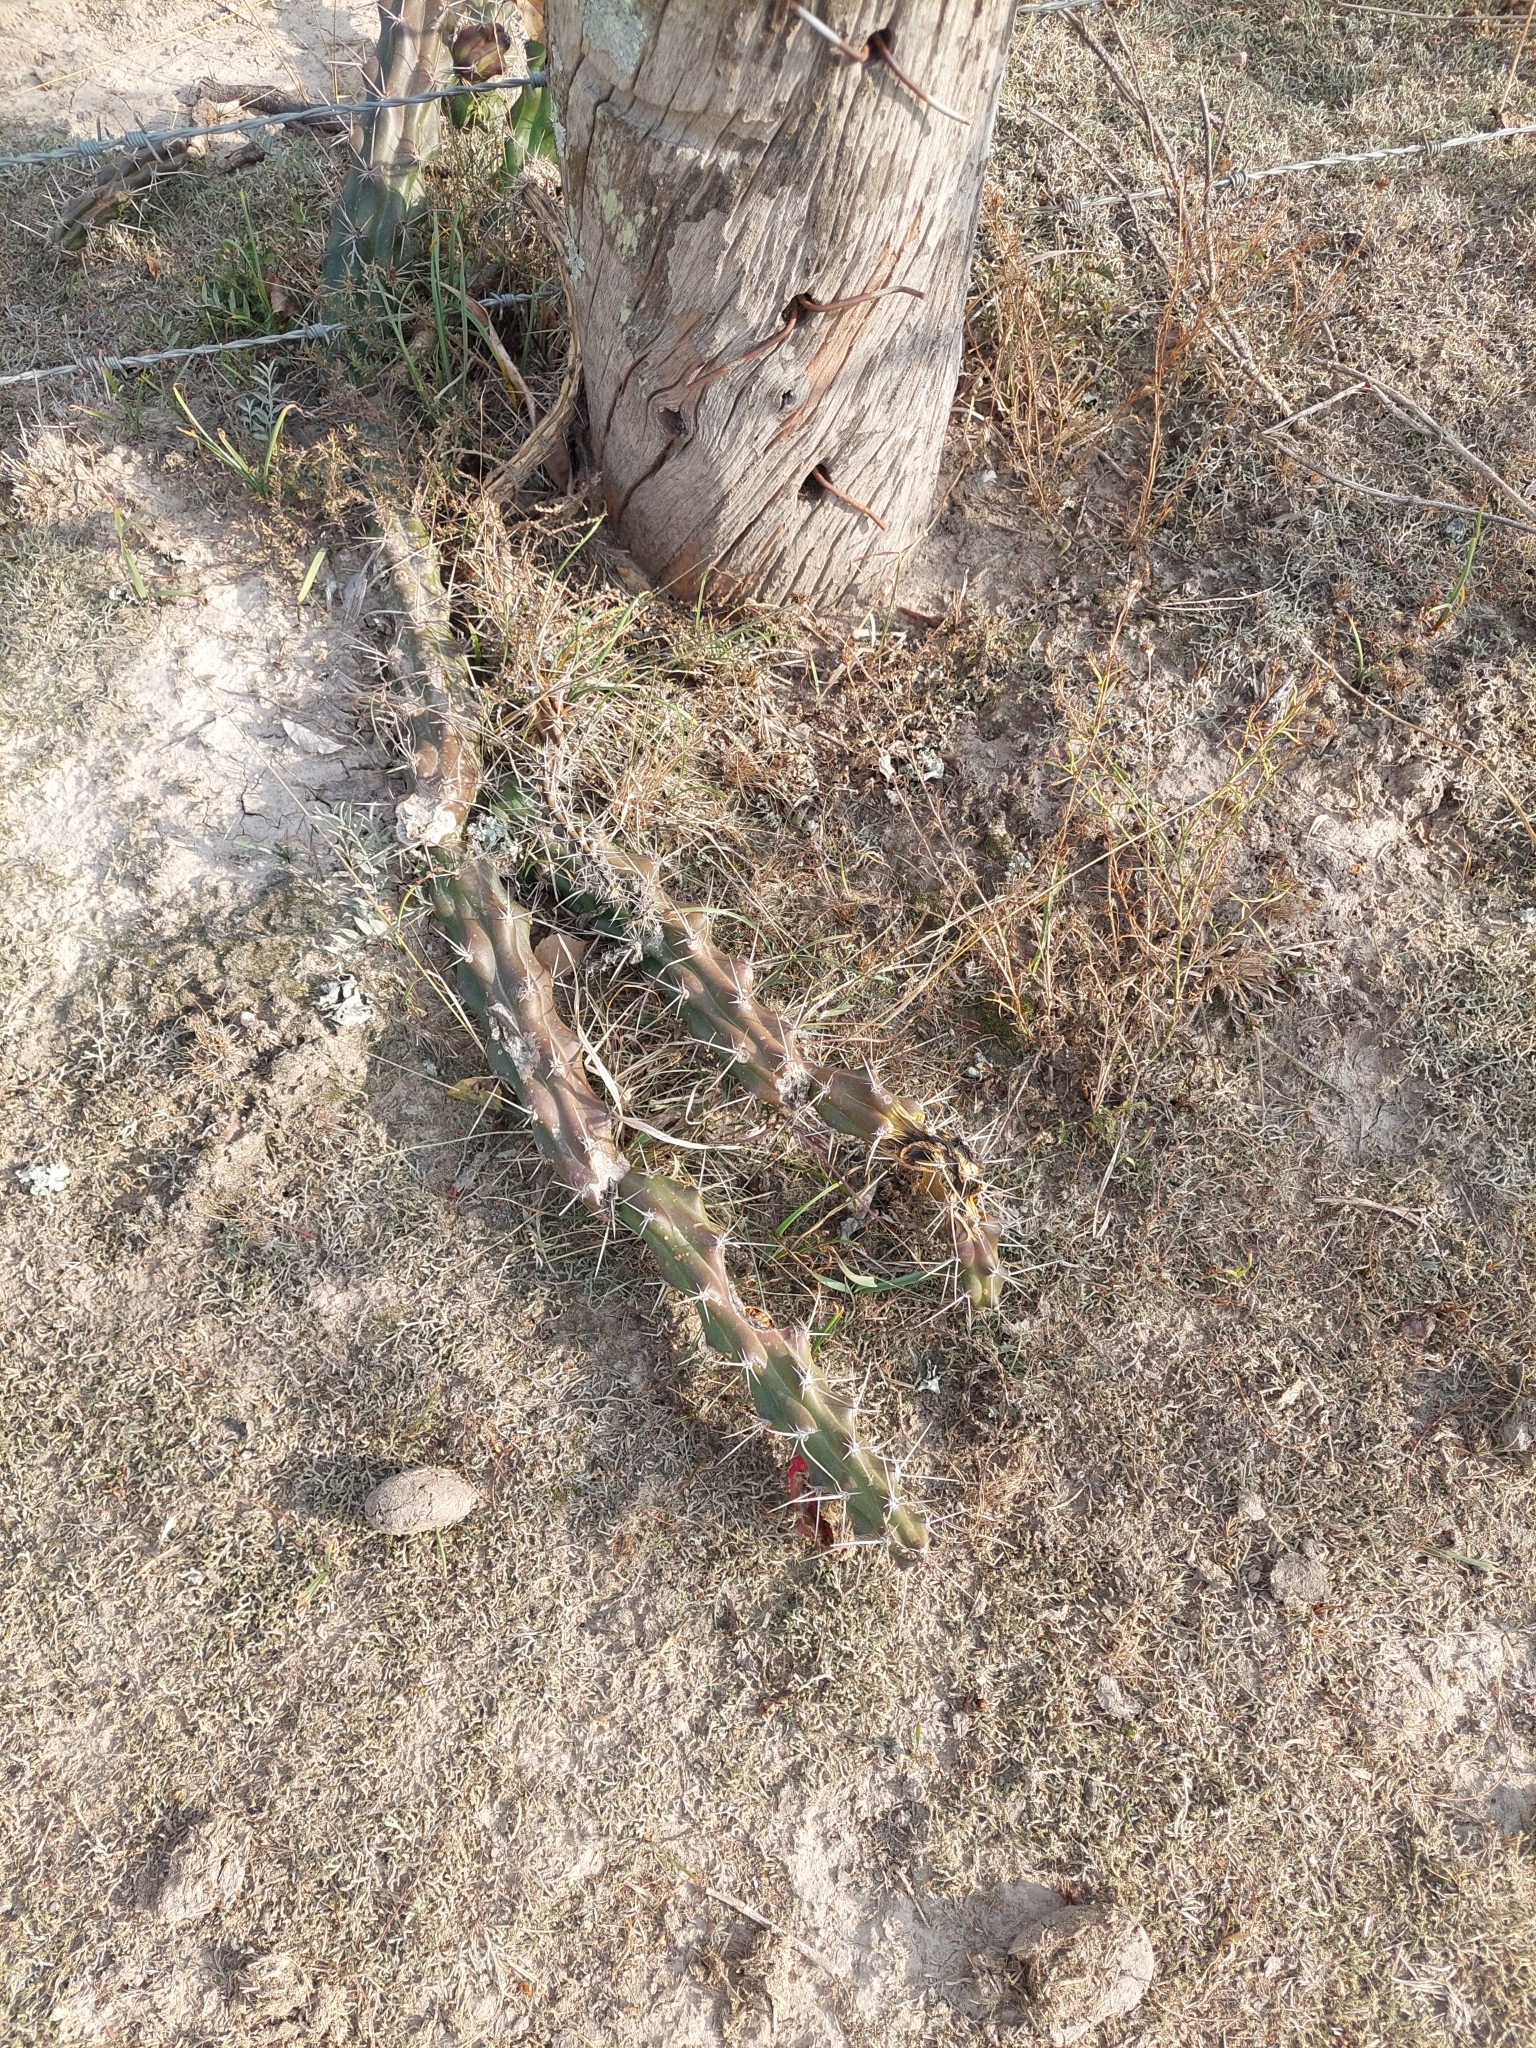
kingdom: Plantae
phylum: Tracheophyta
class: Magnoliopsida
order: Caryophyllales
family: Cactaceae
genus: Harrisia
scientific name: Harrisia martinii
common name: Moon cactus
